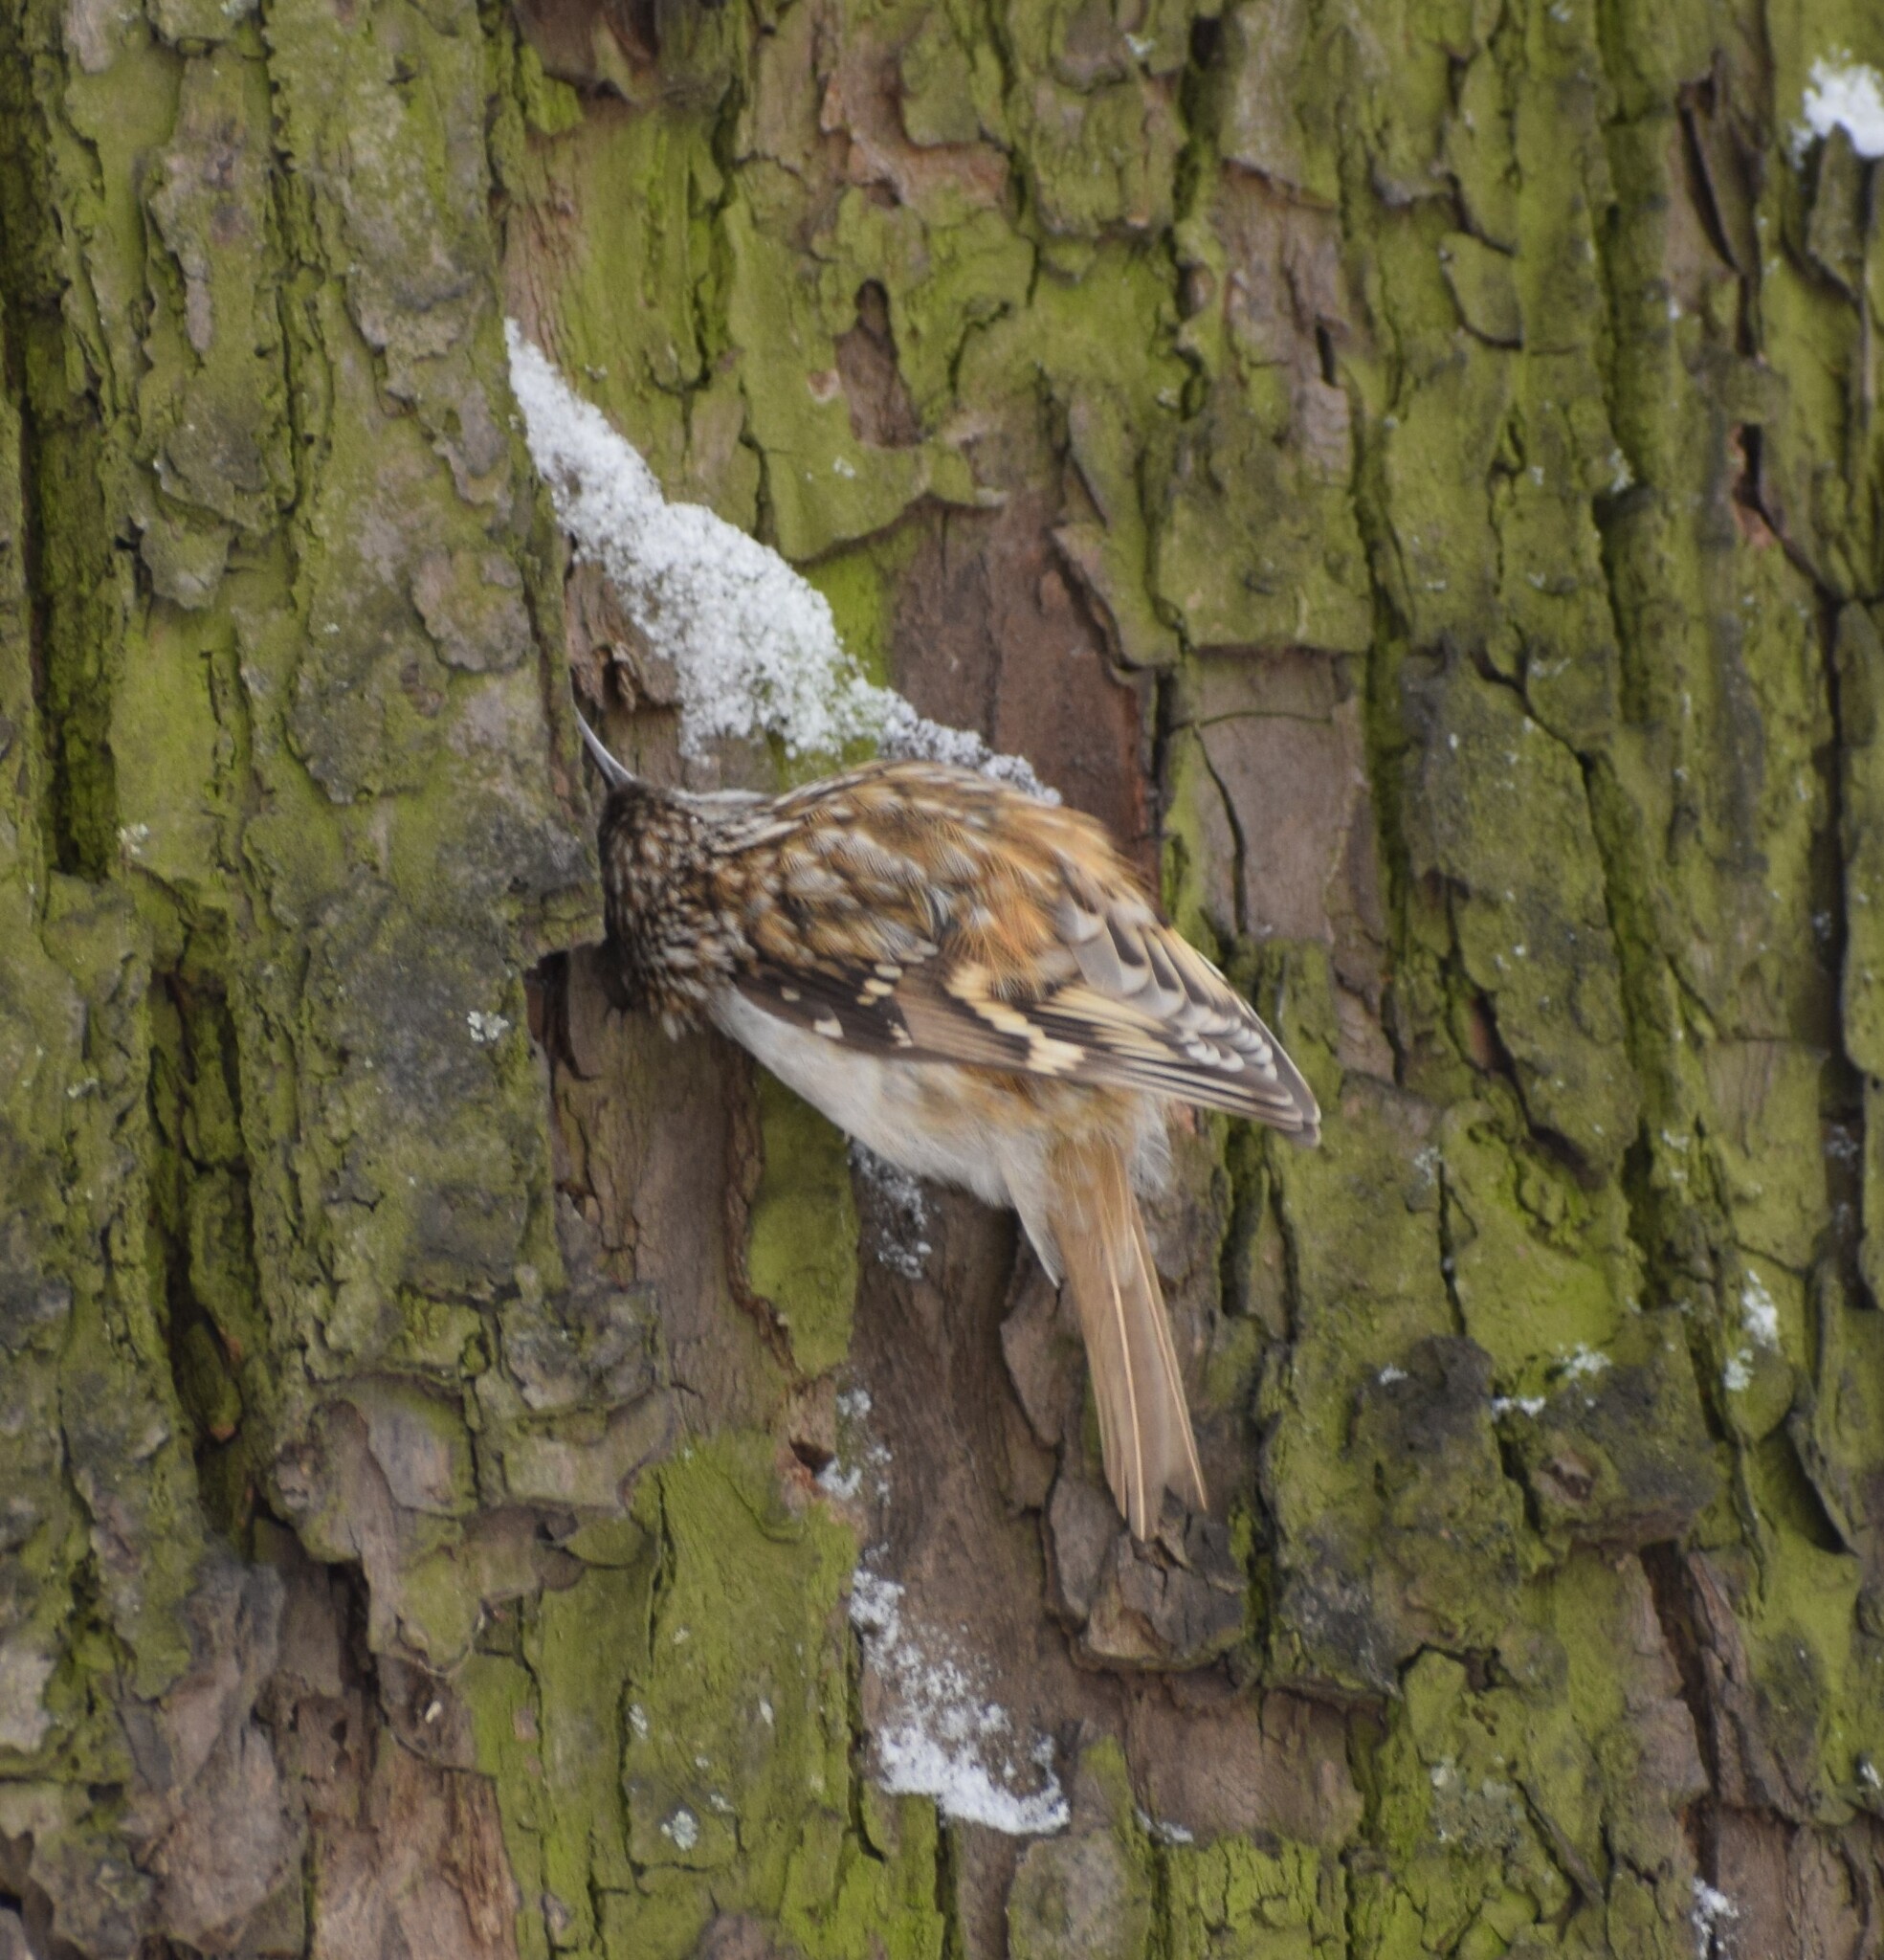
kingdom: Animalia
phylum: Chordata
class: Aves
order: Passeriformes
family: Certhiidae
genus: Certhia
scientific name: Certhia familiaris
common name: Eurasian treecreeper
